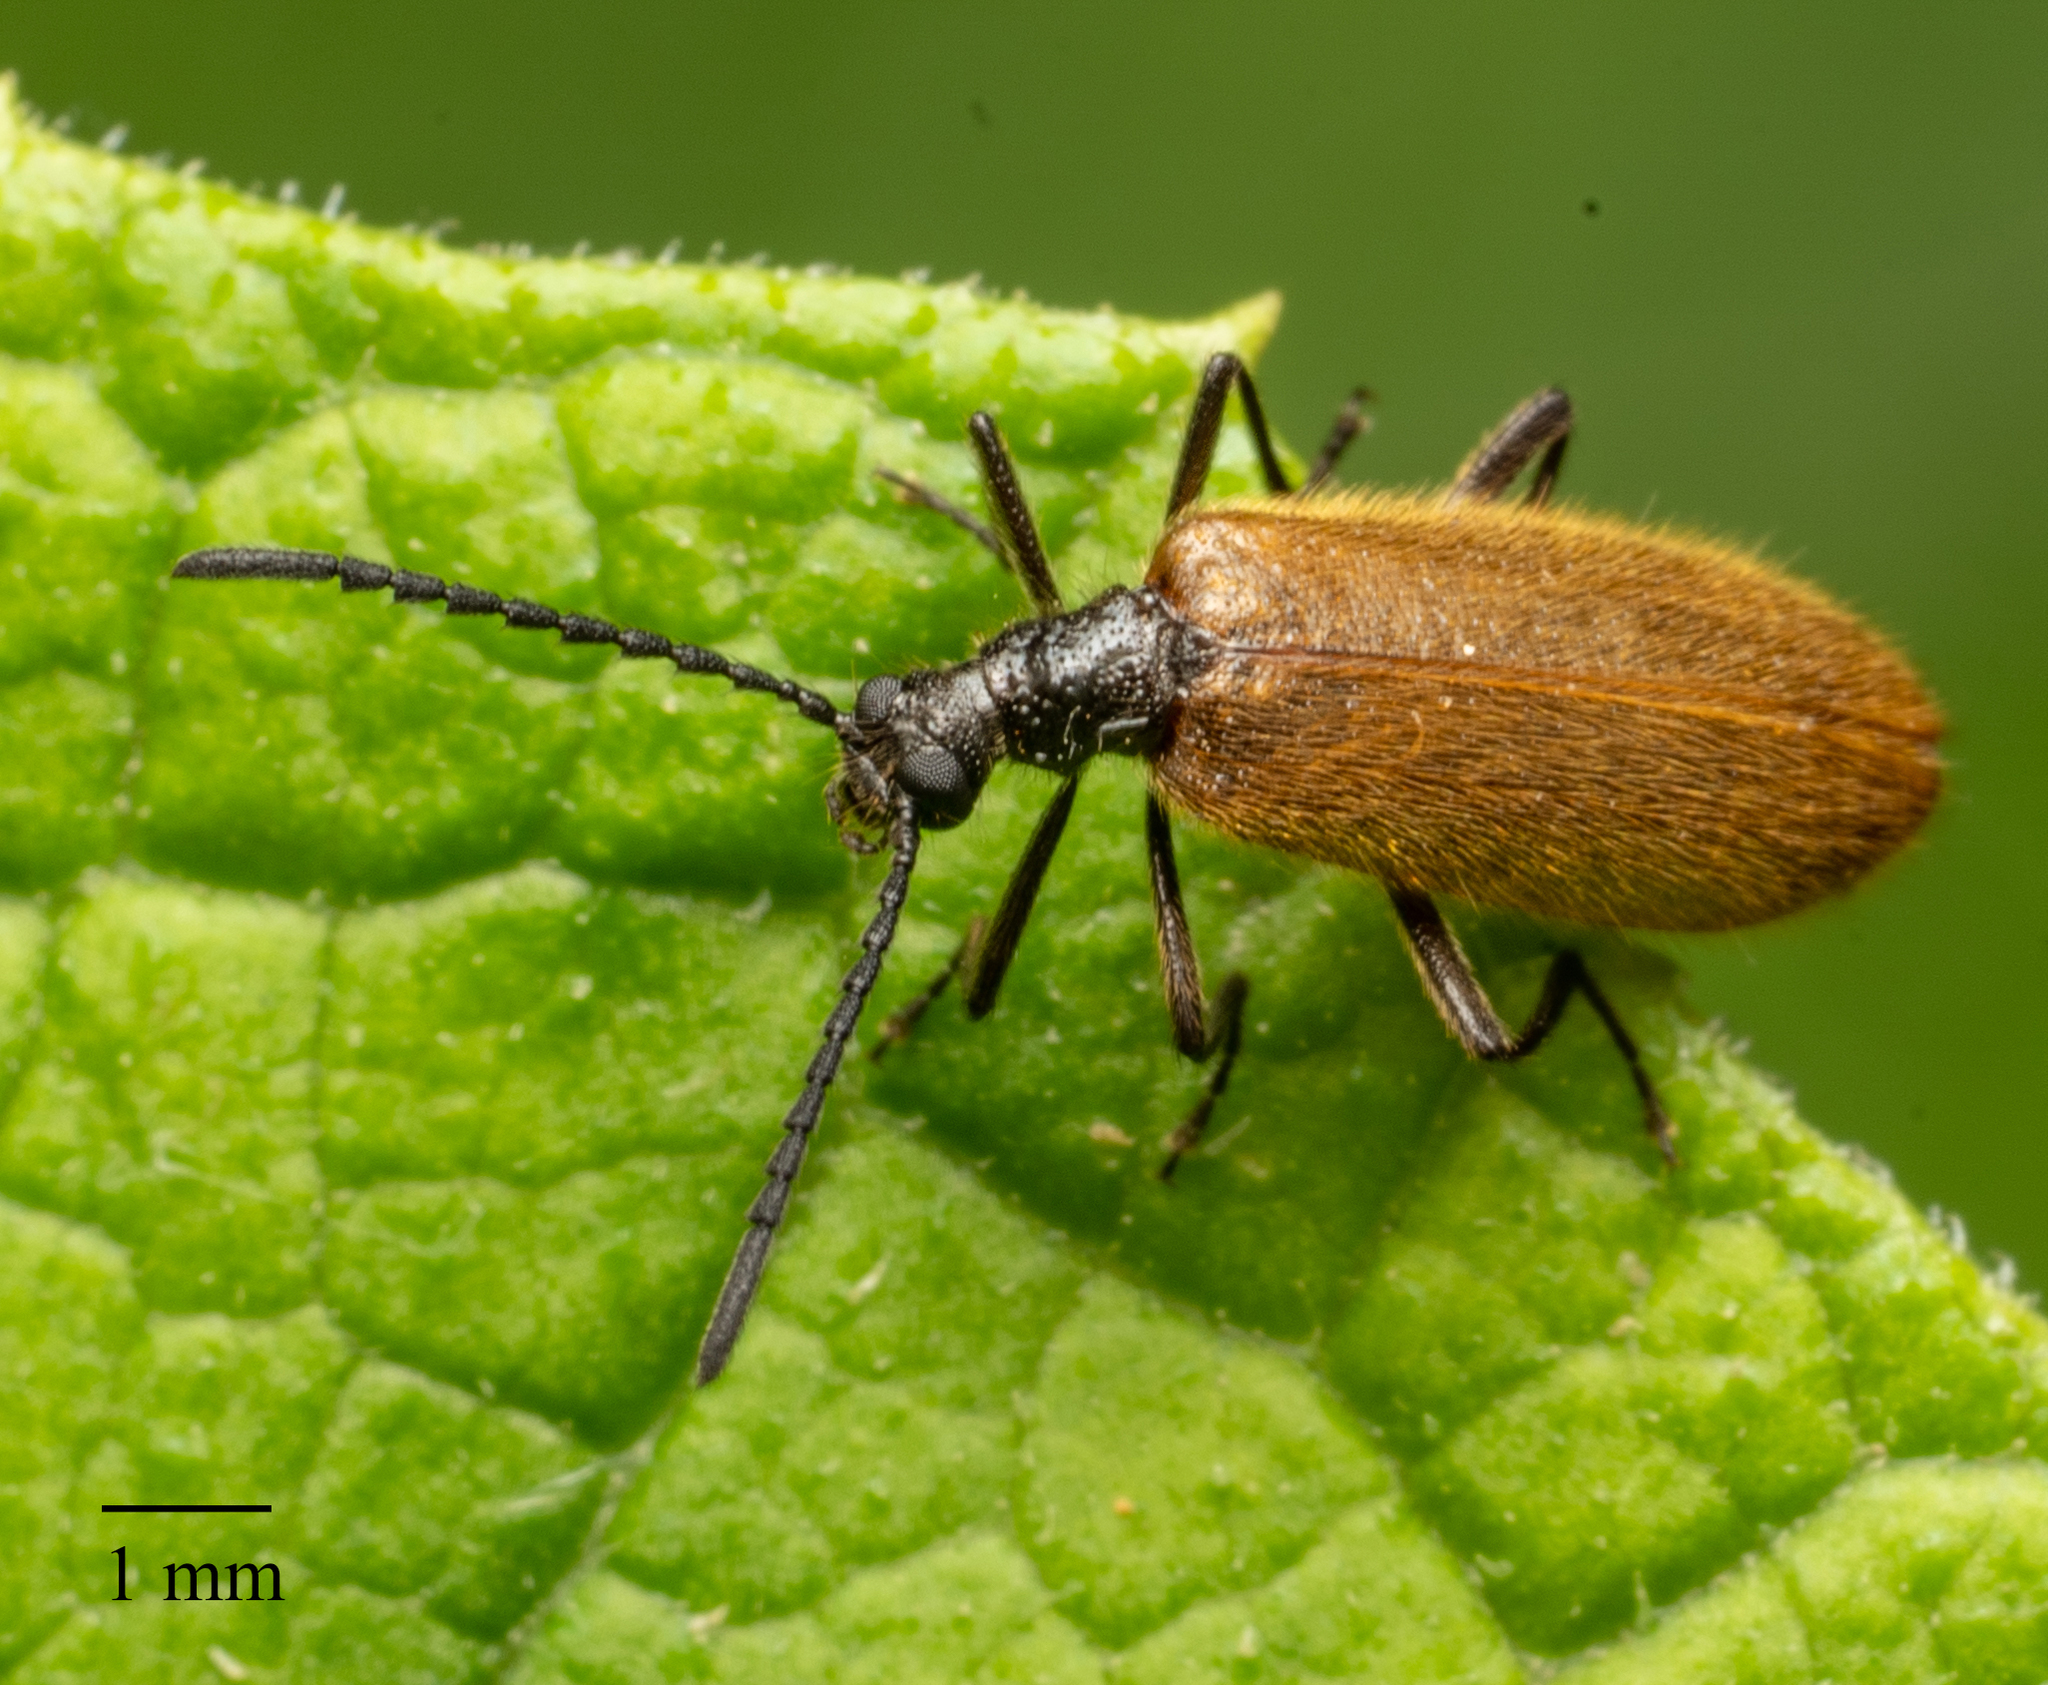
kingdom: Animalia
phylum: Arthropoda
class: Insecta
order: Coleoptera
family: Tenebrionidae
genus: Lagria
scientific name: Lagria hirta
